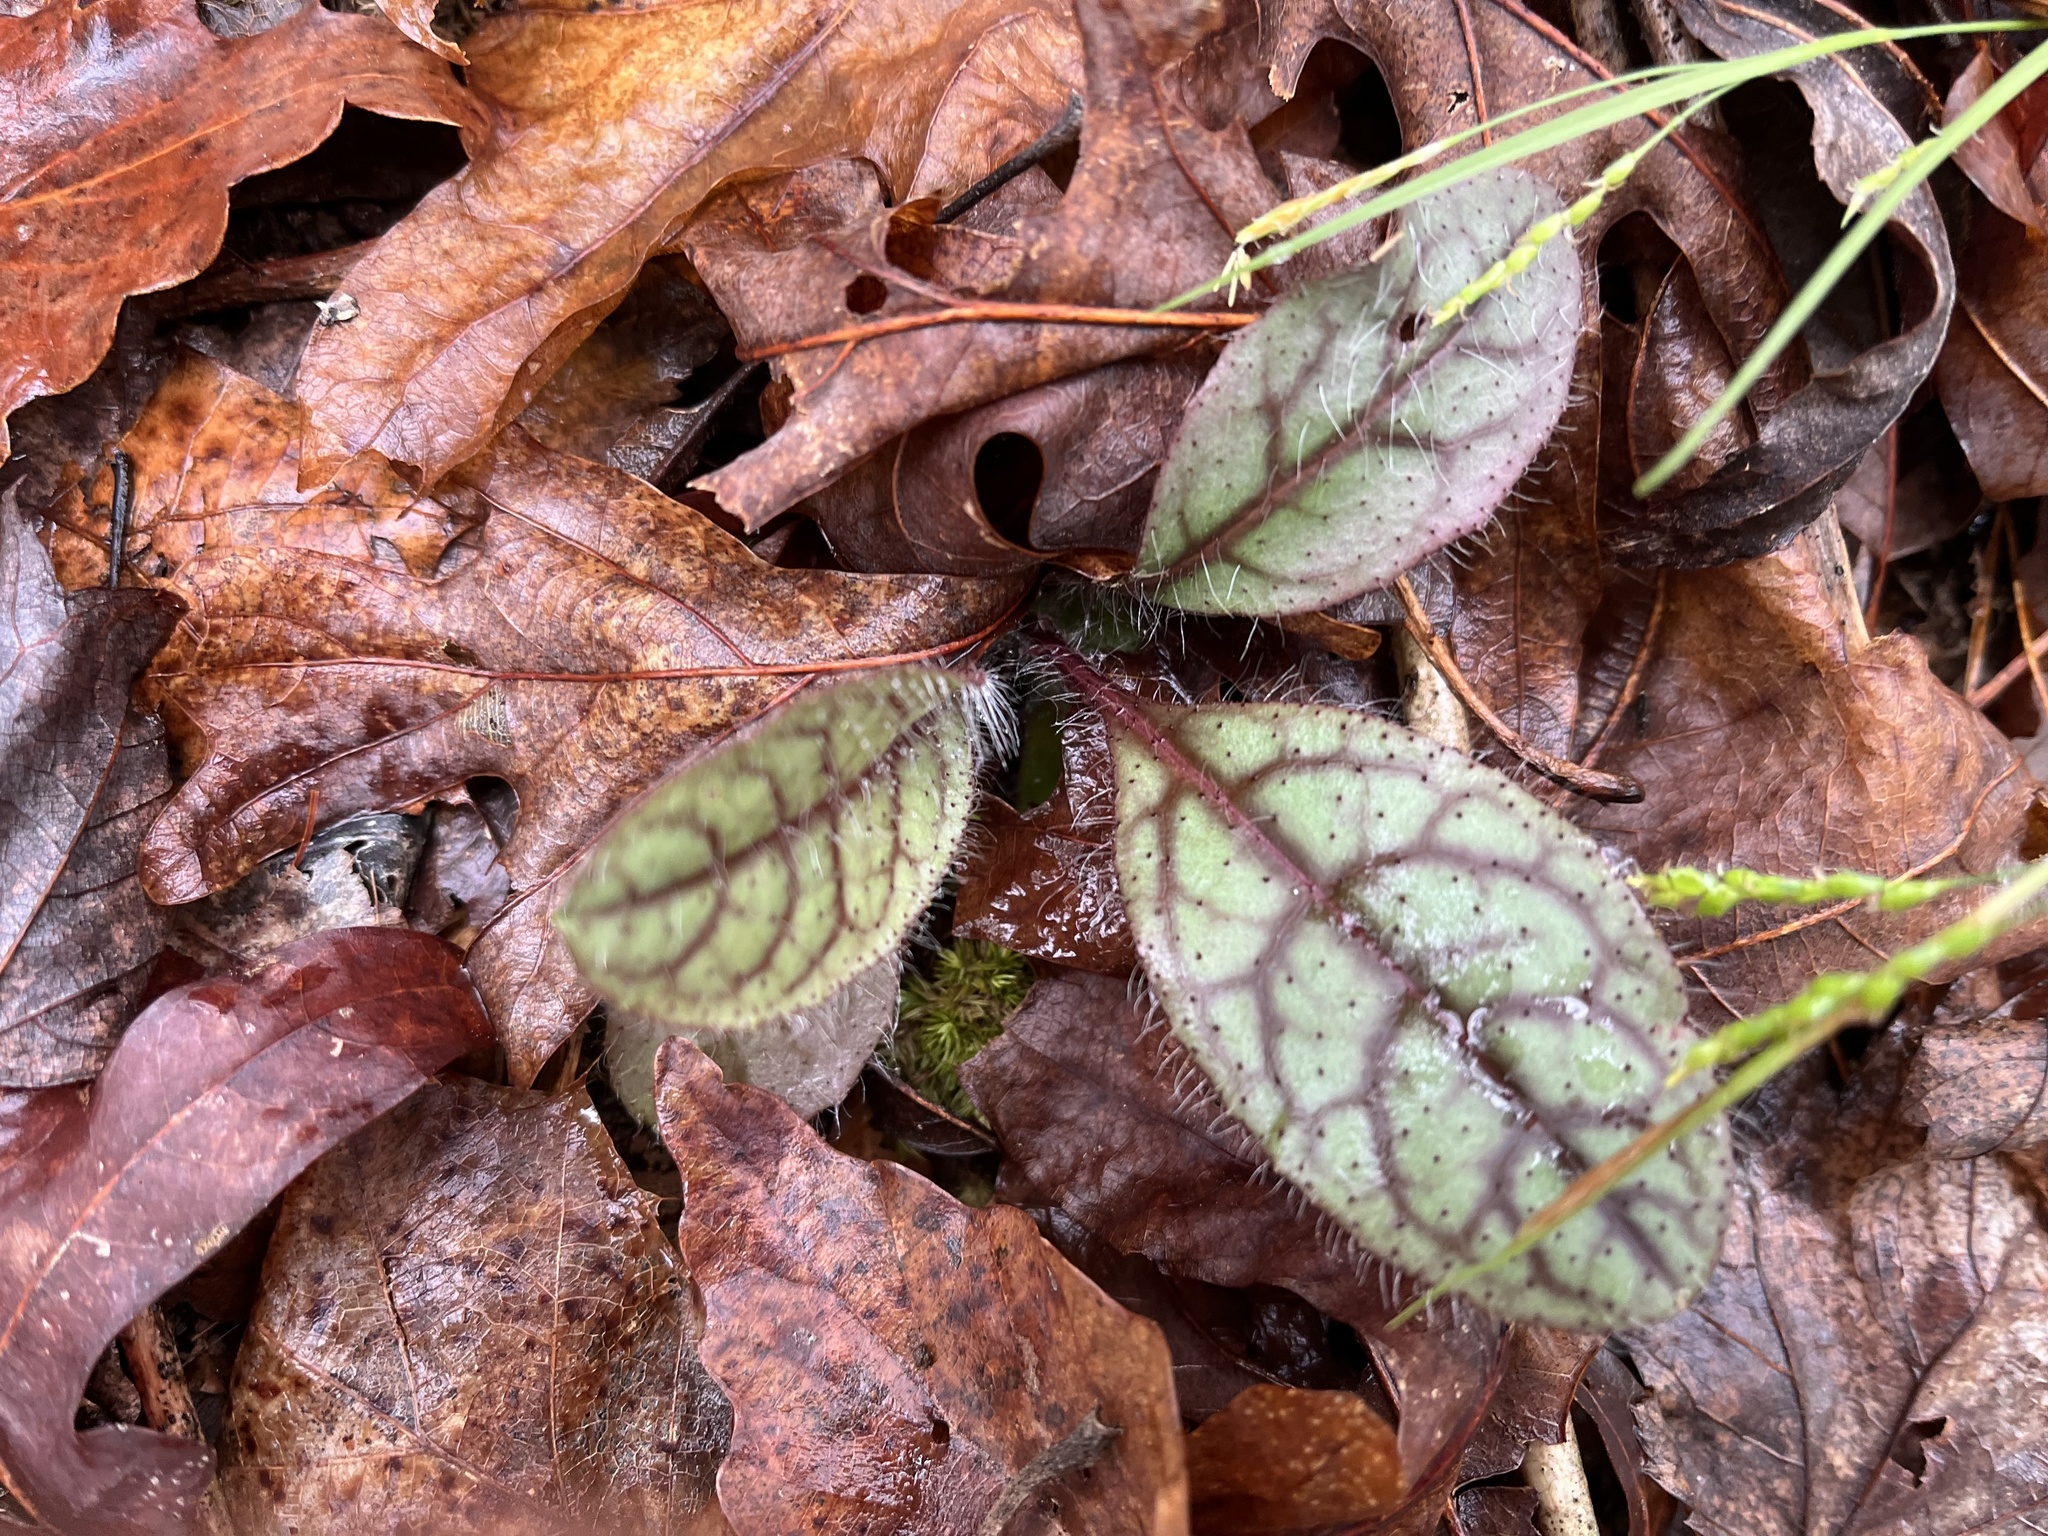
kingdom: Plantae
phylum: Tracheophyta
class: Magnoliopsida
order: Asterales
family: Asteraceae
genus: Hieracium
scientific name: Hieracium venosum
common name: Rattlesnake hawkweed
